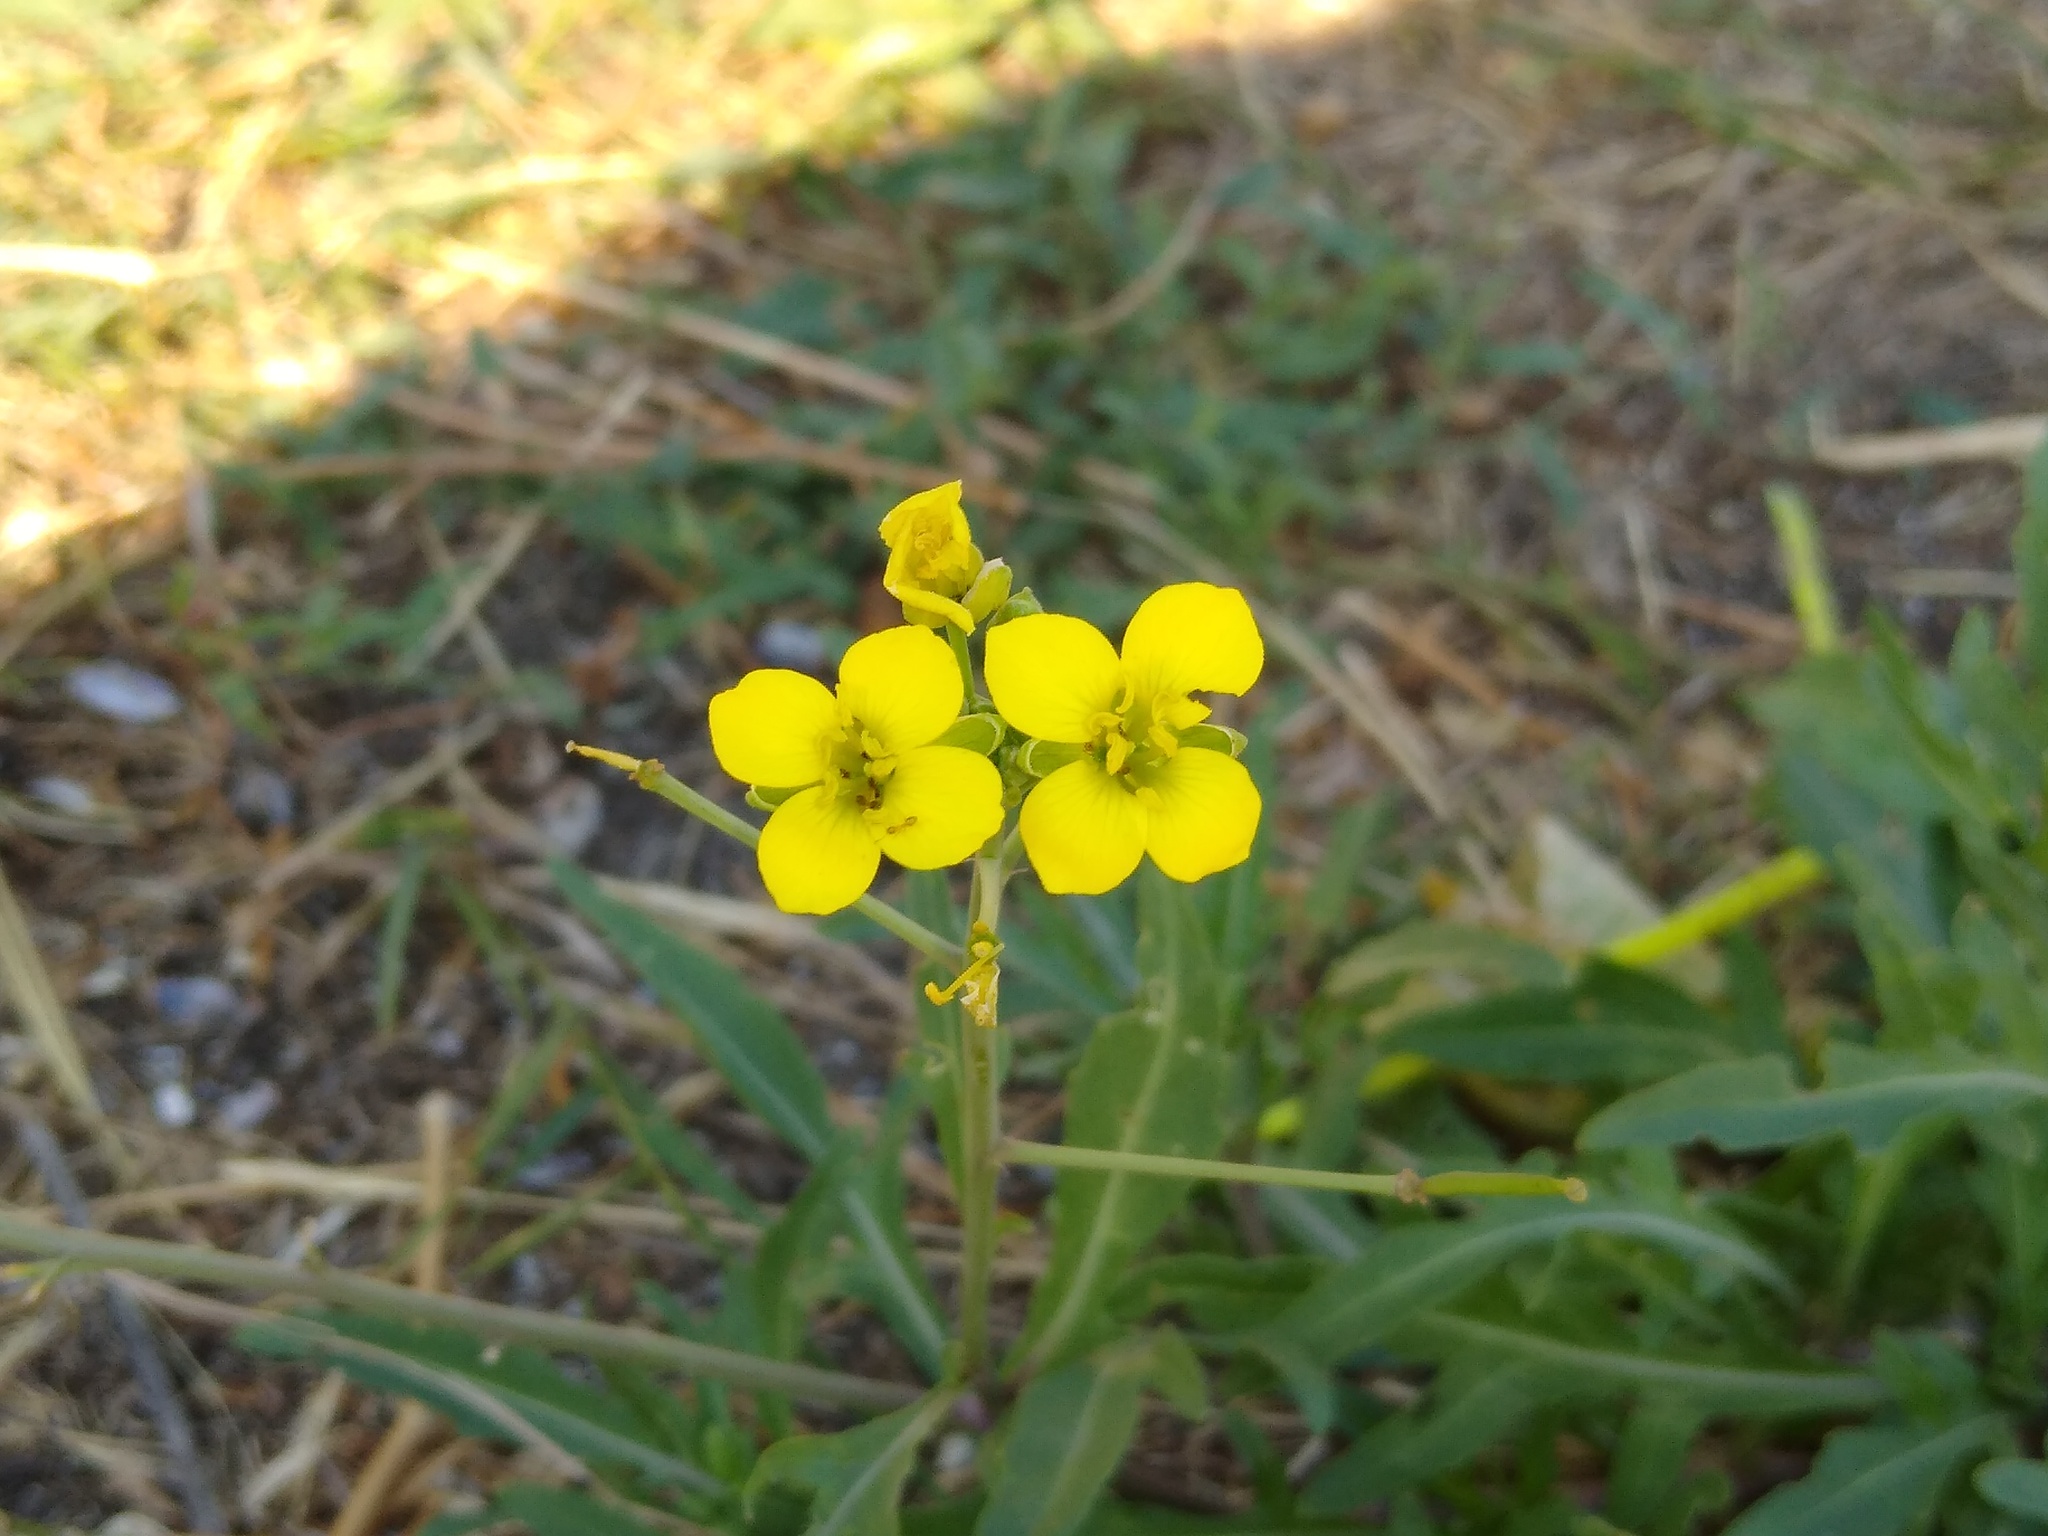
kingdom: Plantae
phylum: Tracheophyta
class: Magnoliopsida
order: Brassicales
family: Brassicaceae
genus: Diplotaxis
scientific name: Diplotaxis tenuifolia
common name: Perennial wall-rocket
